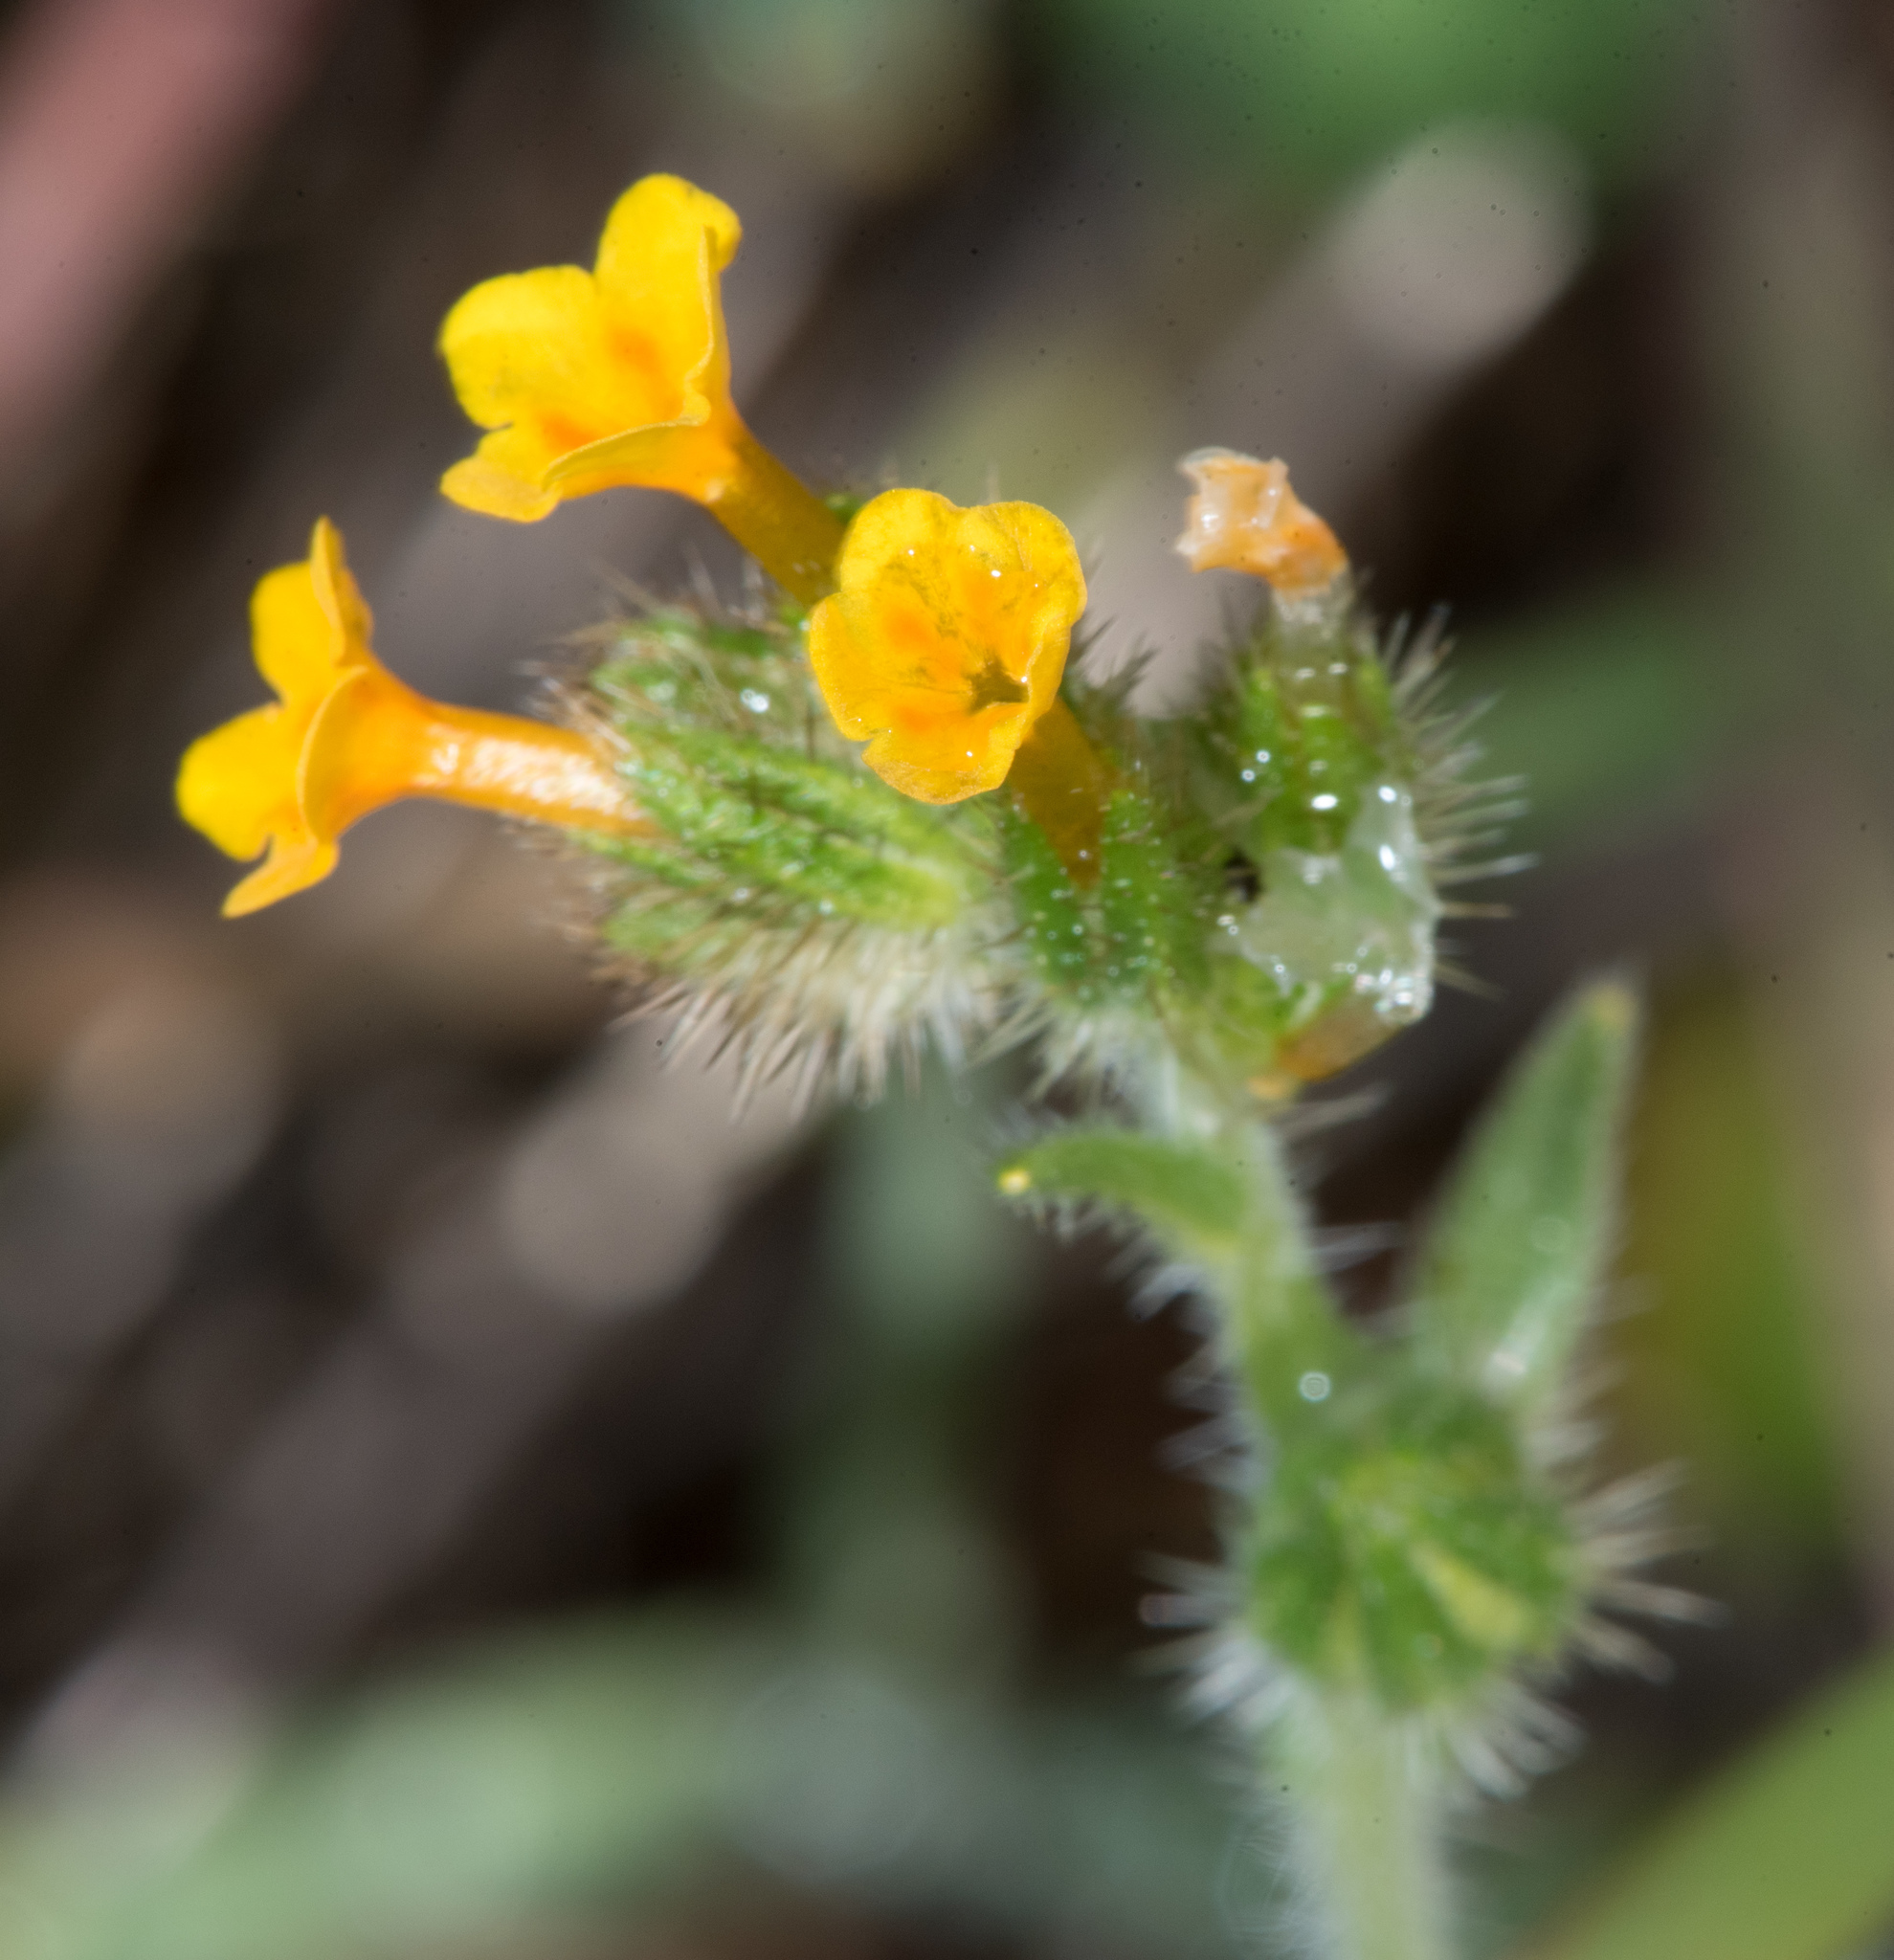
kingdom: Plantae
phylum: Tracheophyta
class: Magnoliopsida
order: Boraginales
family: Boraginaceae
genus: Amsinckia
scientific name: Amsinckia menziesii
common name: Menzies' fiddleneck
